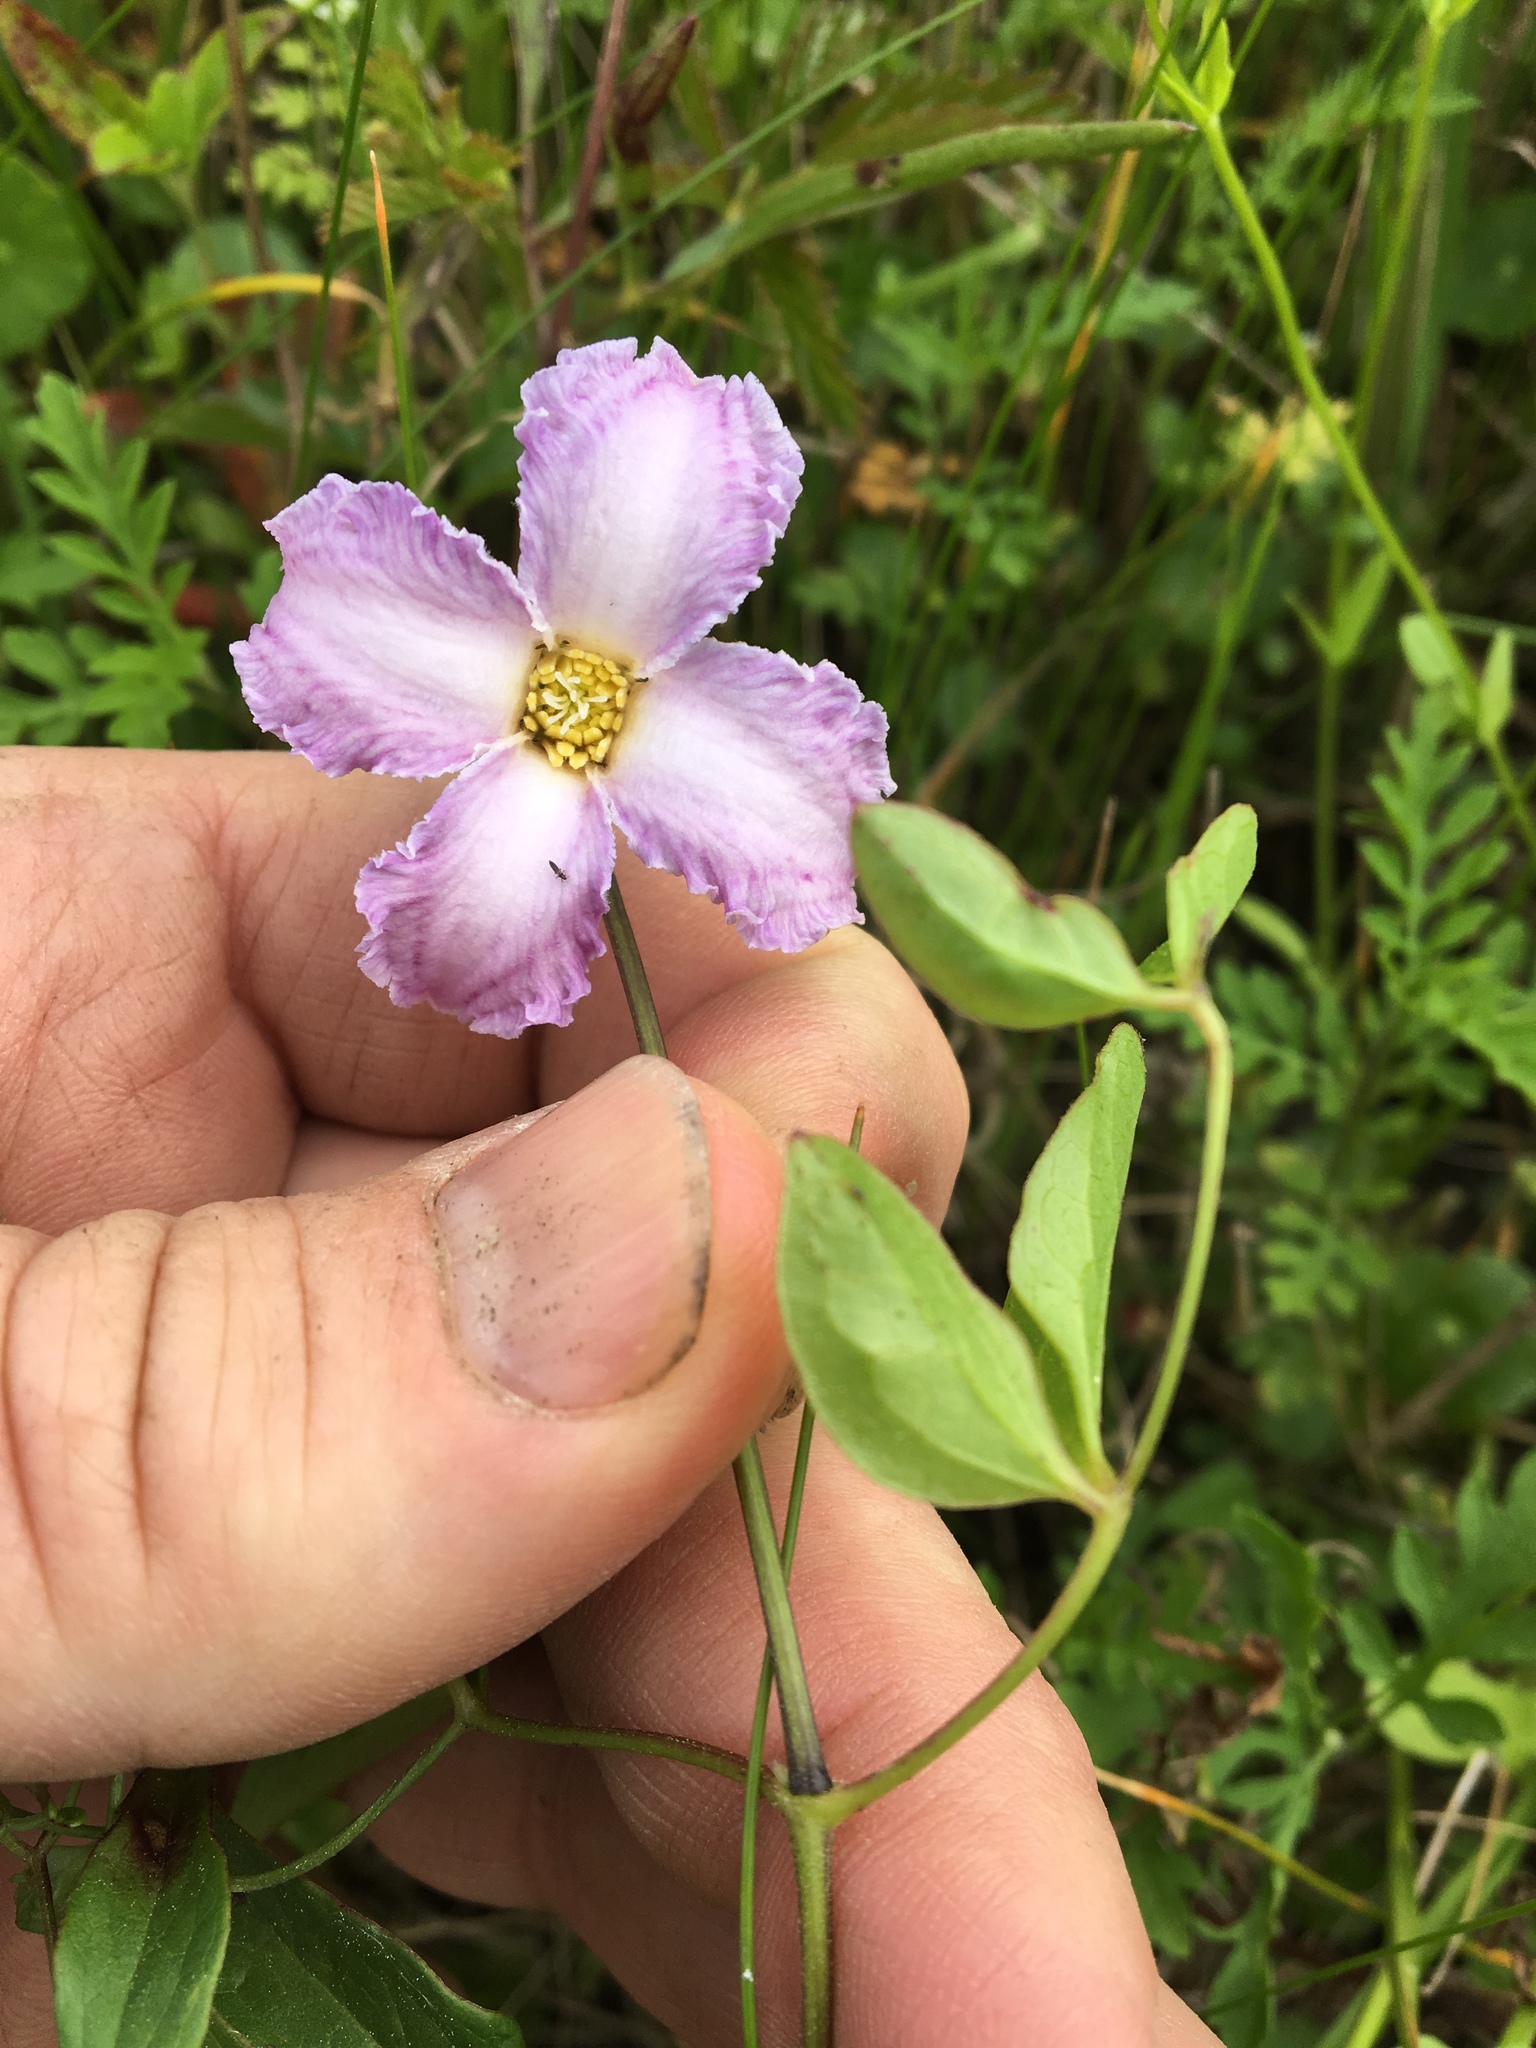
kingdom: Plantae
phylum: Tracheophyta
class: Magnoliopsida
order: Ranunculales
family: Ranunculaceae
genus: Clematis
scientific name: Clematis crispa
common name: Curly clematis
